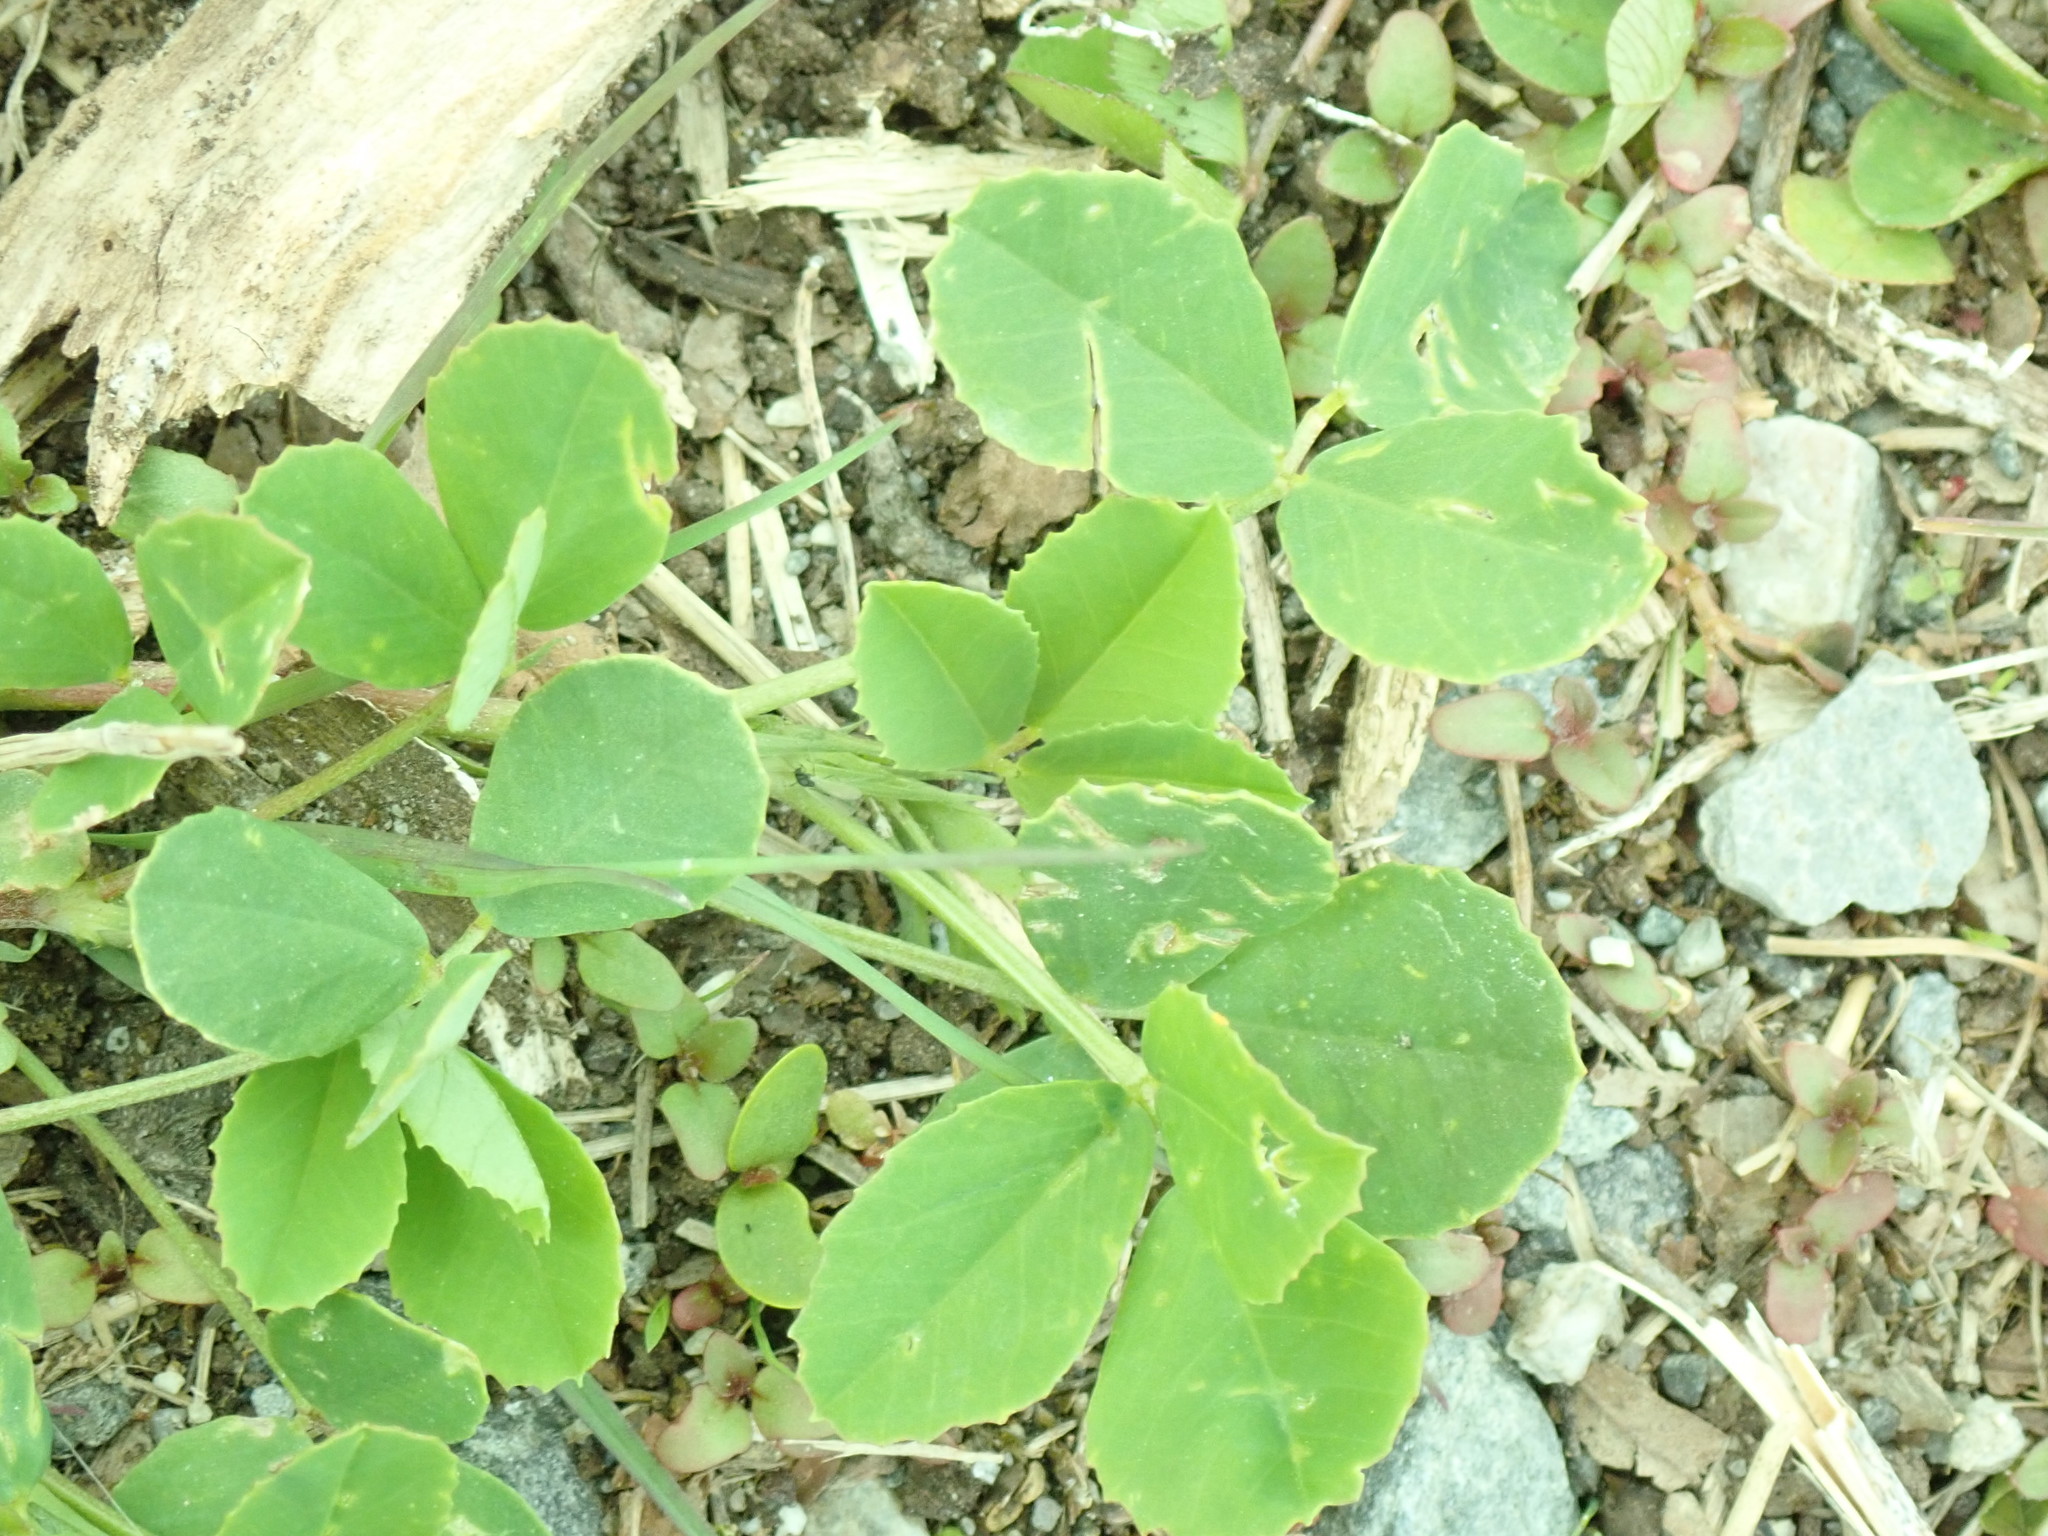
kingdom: Plantae
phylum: Tracheophyta
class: Magnoliopsida
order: Fabales
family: Fabaceae
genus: Melilotus
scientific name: Melilotus
